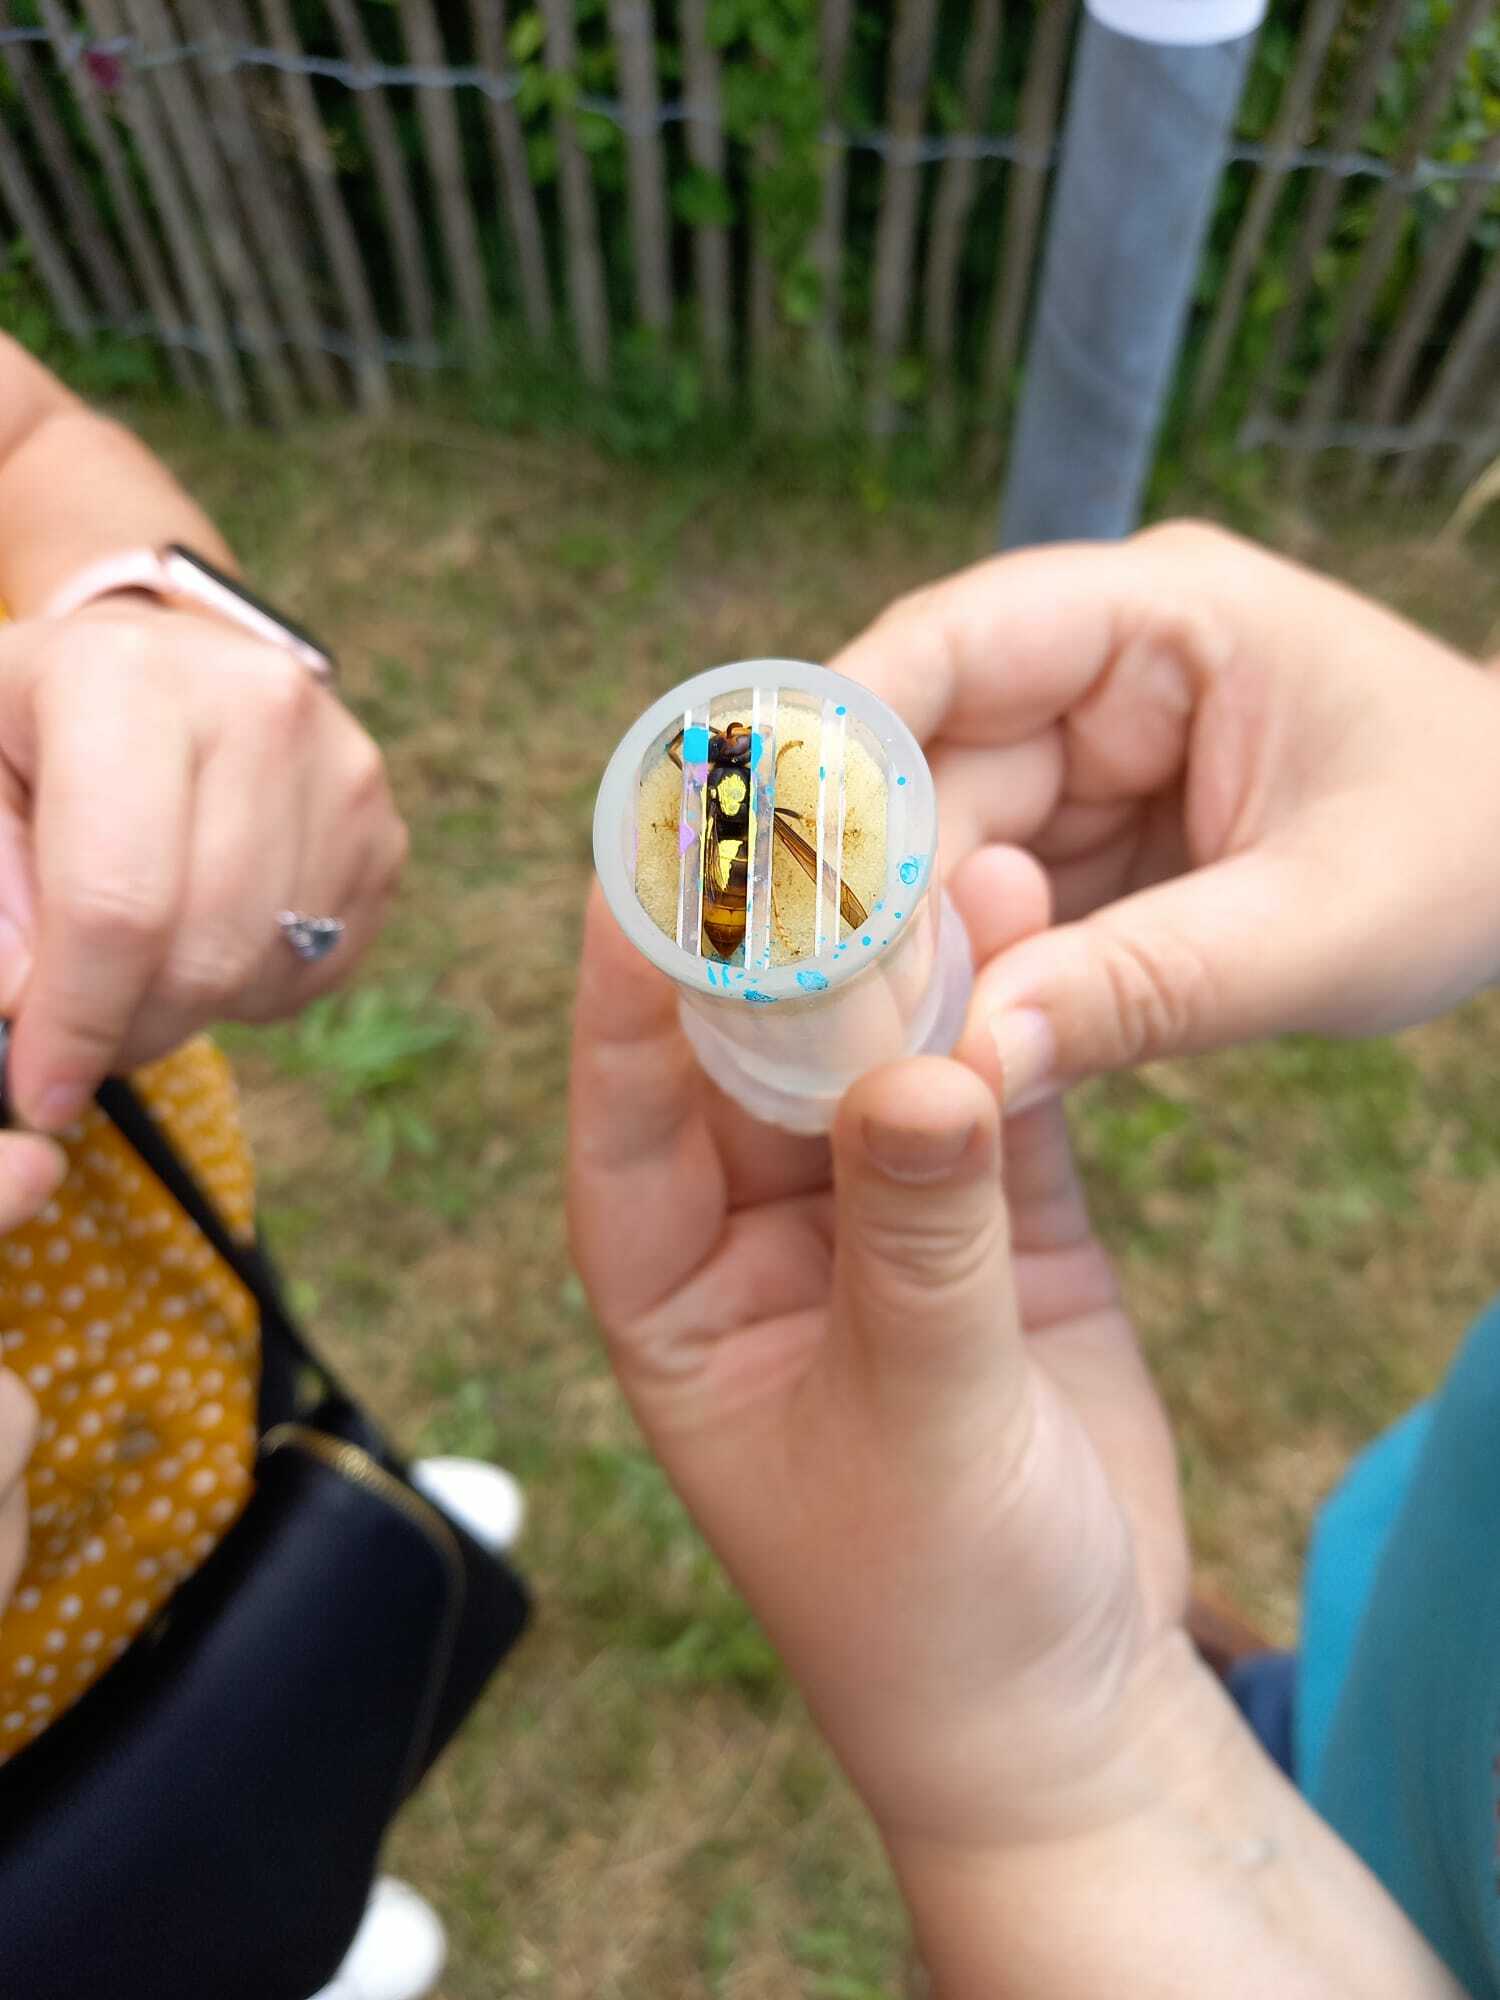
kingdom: Animalia
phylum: Arthropoda
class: Insecta
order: Hymenoptera
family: Vespidae
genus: Vespa
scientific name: Vespa velutina
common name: Asian hornet
